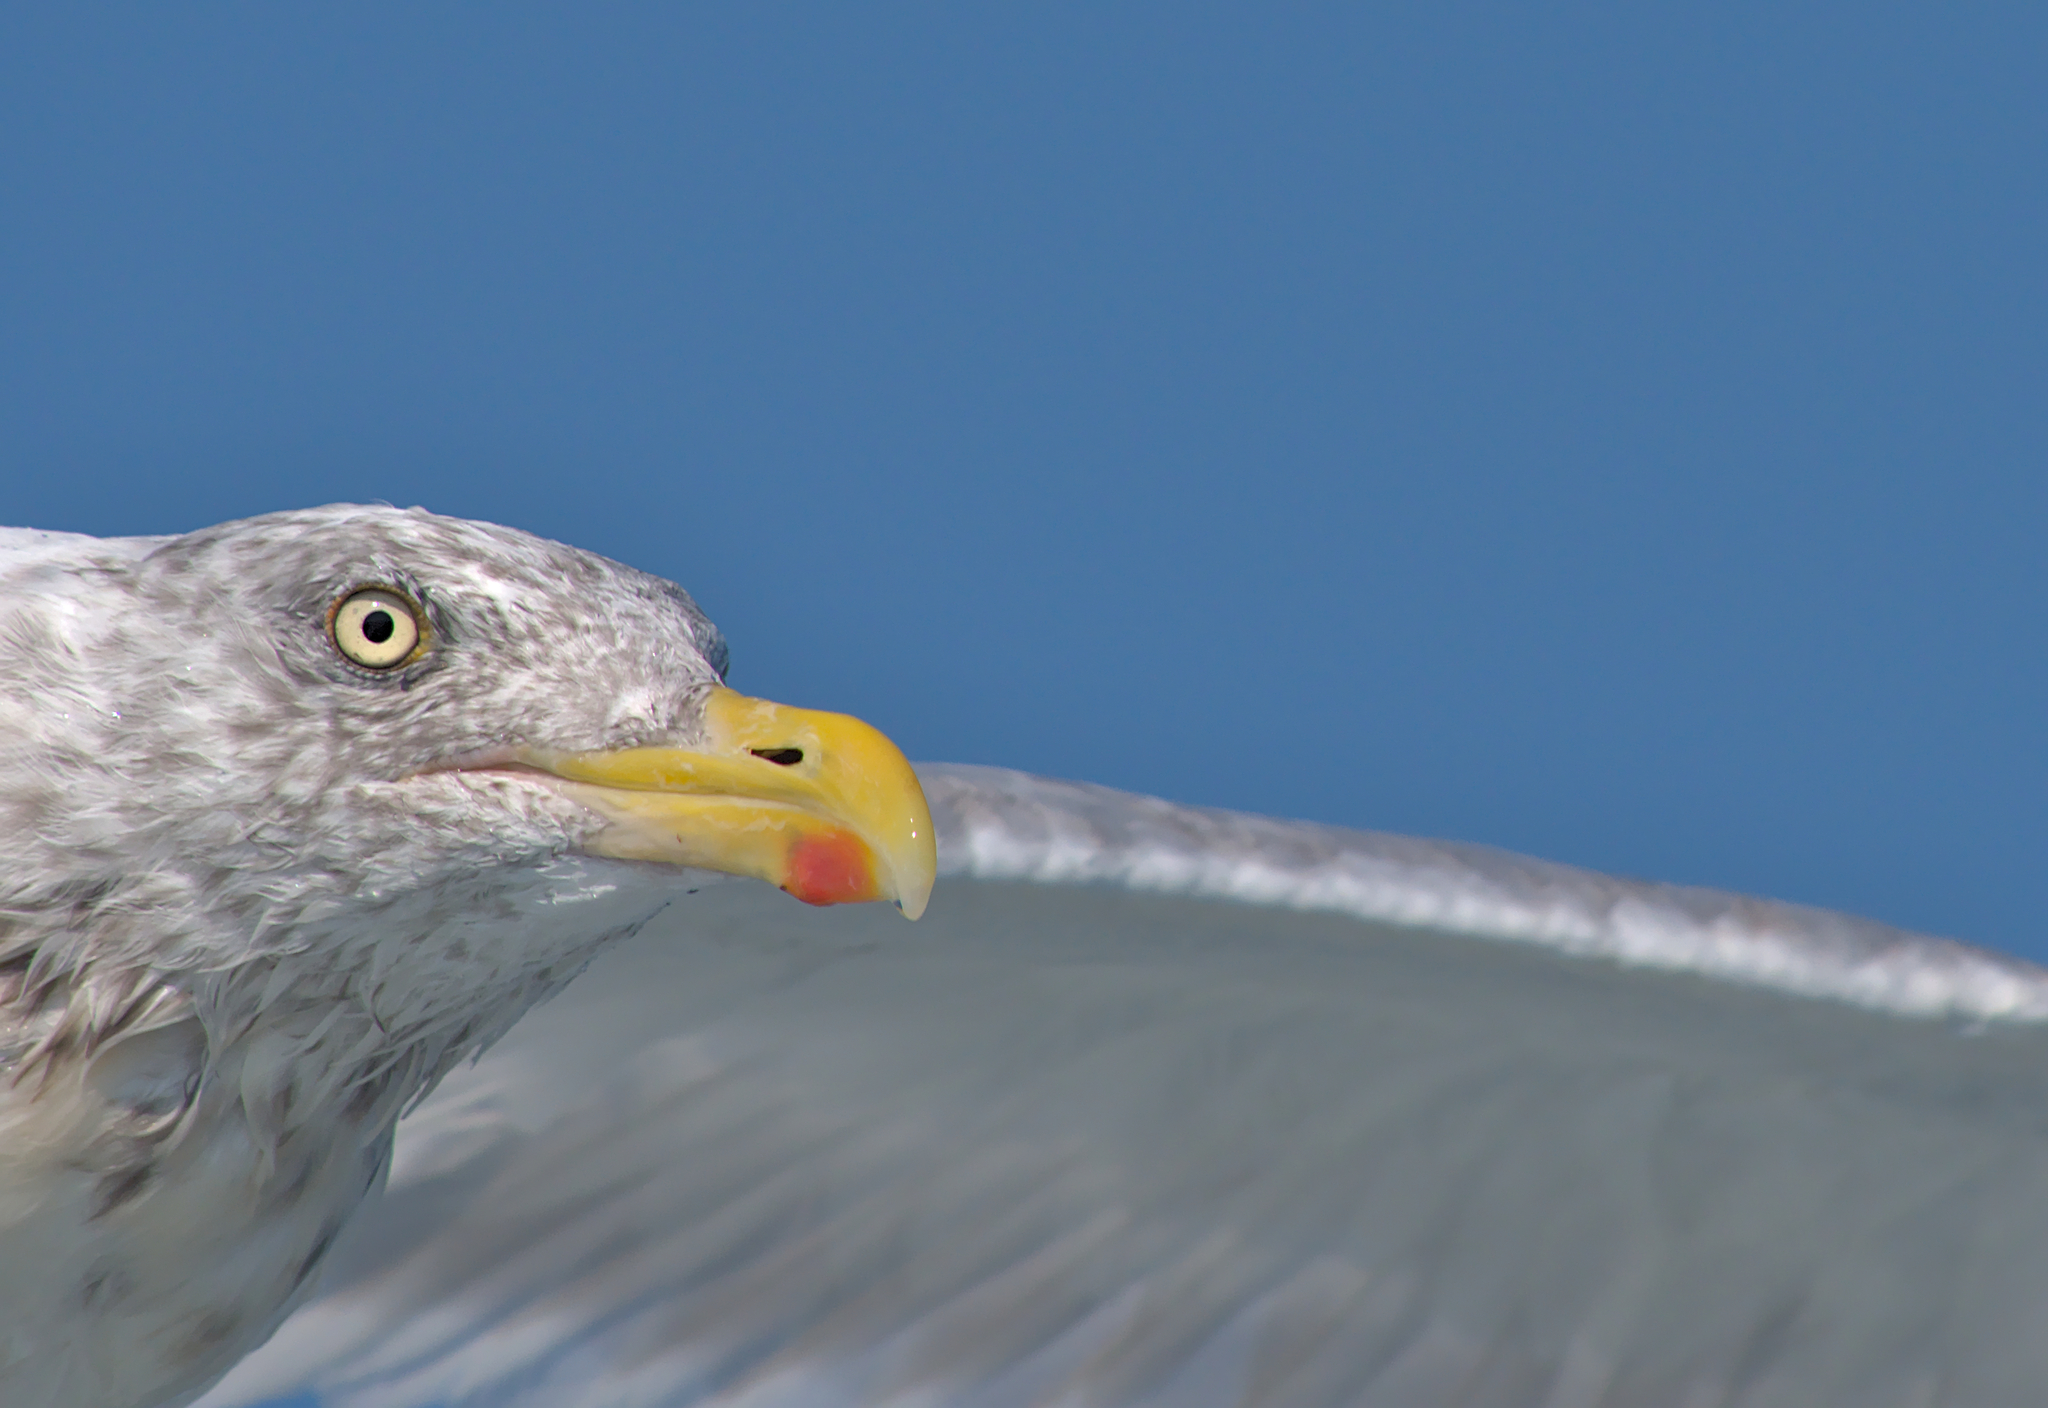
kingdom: Animalia
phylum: Chordata
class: Aves
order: Charadriiformes
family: Laridae
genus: Larus
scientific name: Larus argentatus
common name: Herring gull
